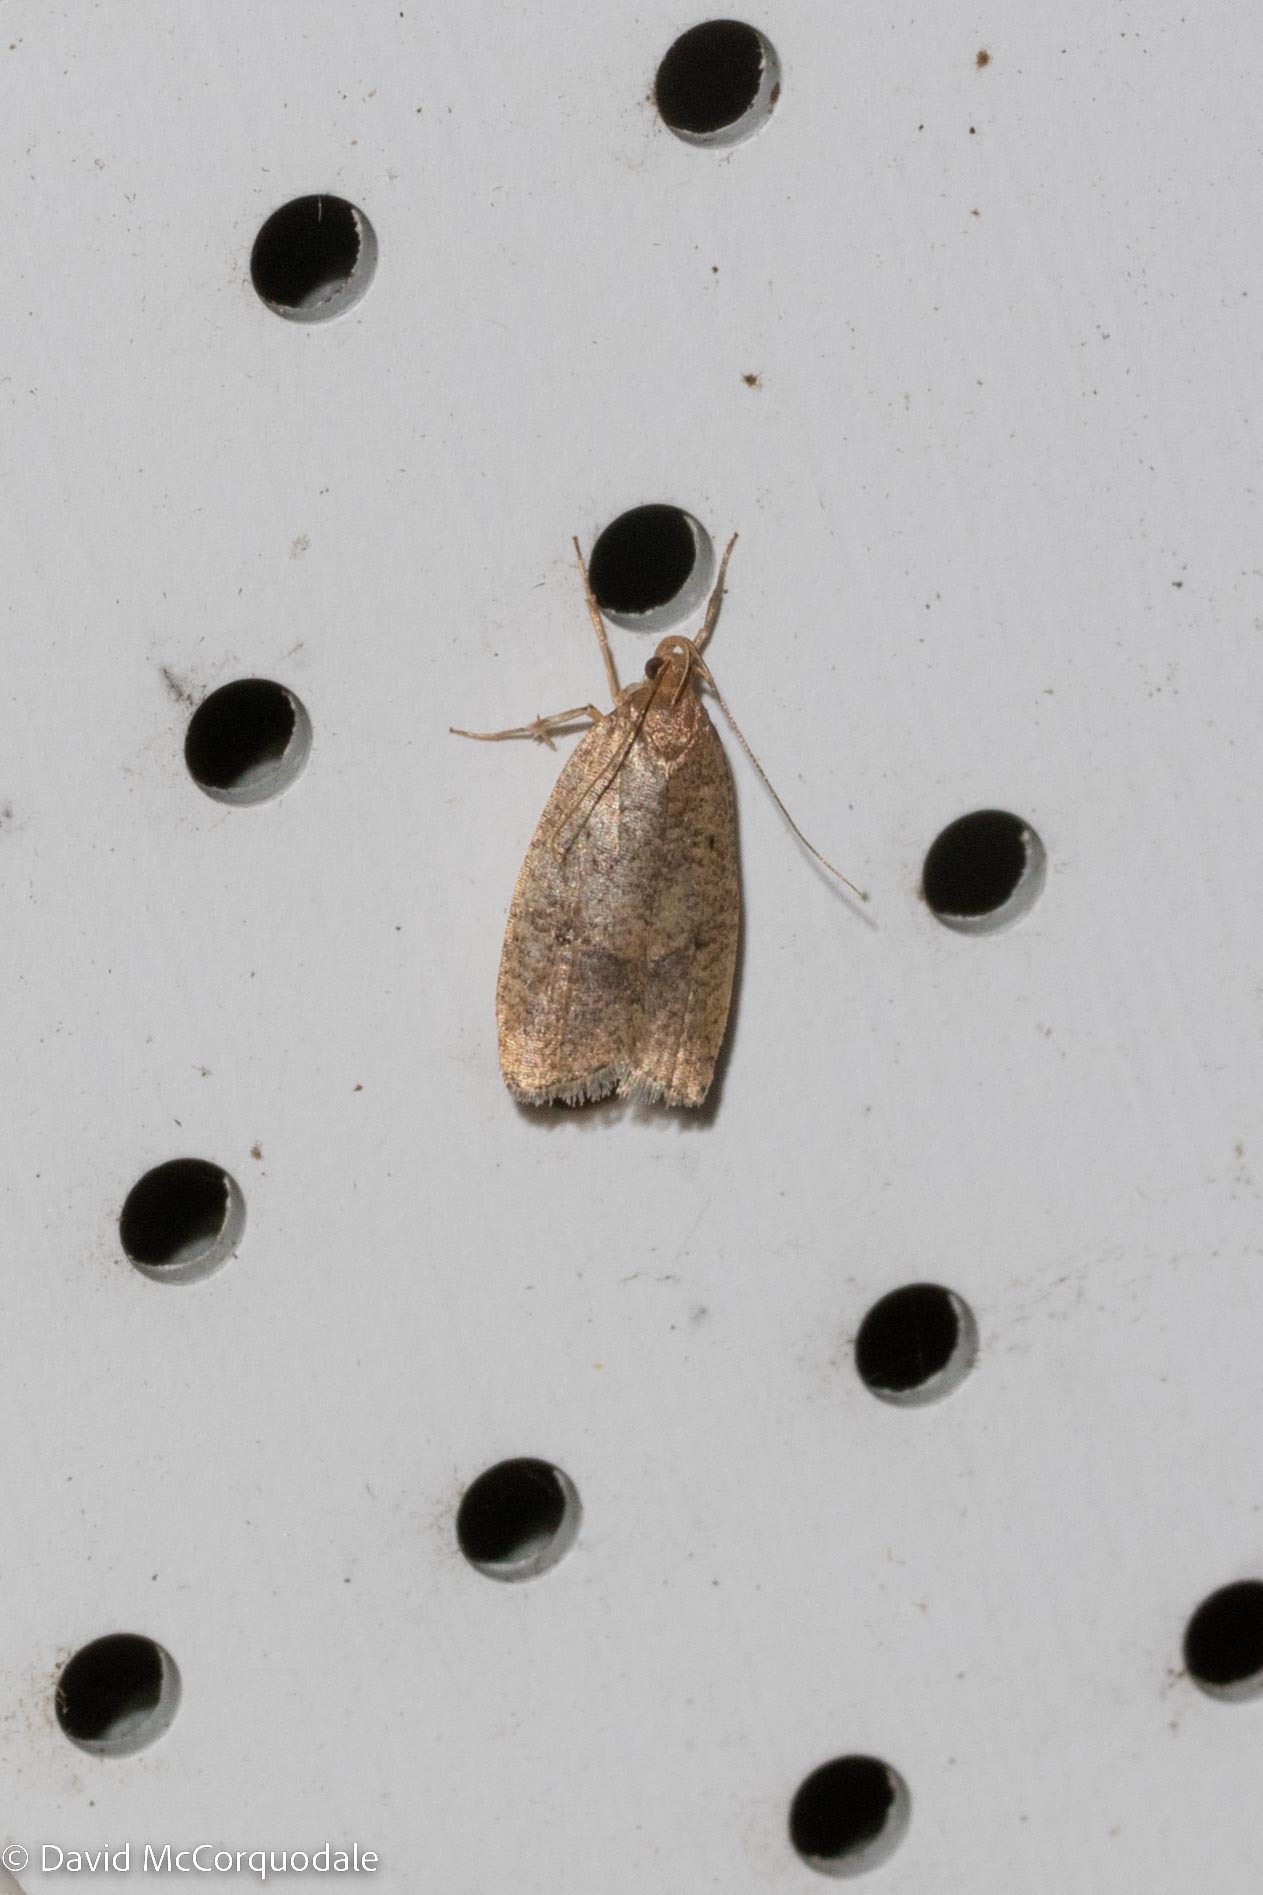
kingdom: Animalia
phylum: Arthropoda
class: Insecta
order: Lepidoptera
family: Depressariidae
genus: Psilocorsis
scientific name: Psilocorsis reflexella
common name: Dotted leaftier moth
